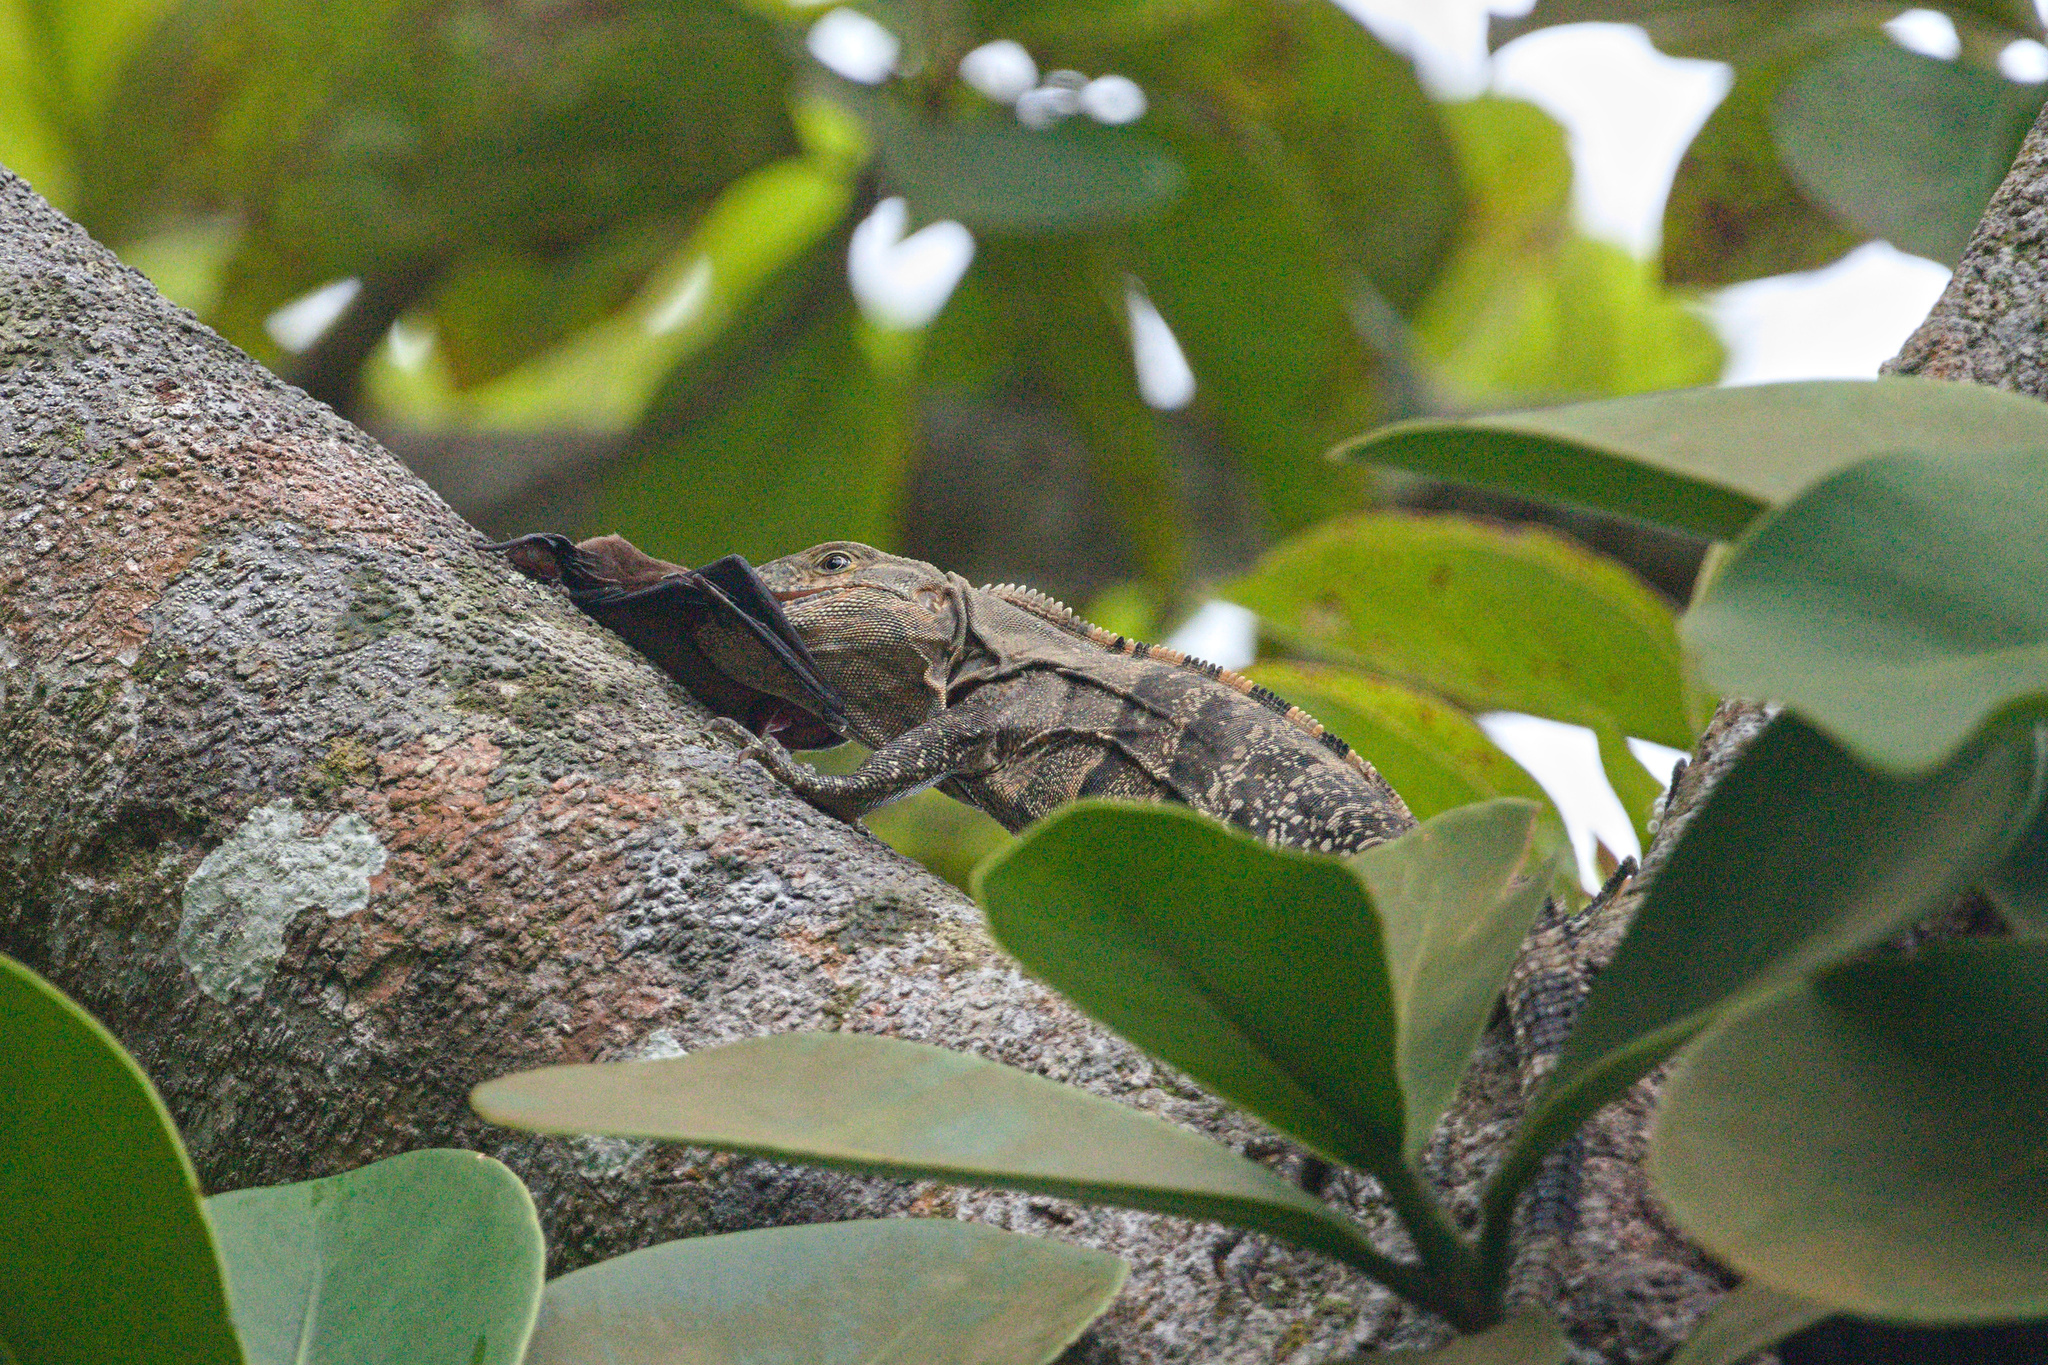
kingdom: Animalia
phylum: Chordata
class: Squamata
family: Iguanidae
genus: Ctenosaura
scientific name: Ctenosaura similis
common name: Black spiny-tailed iguana
